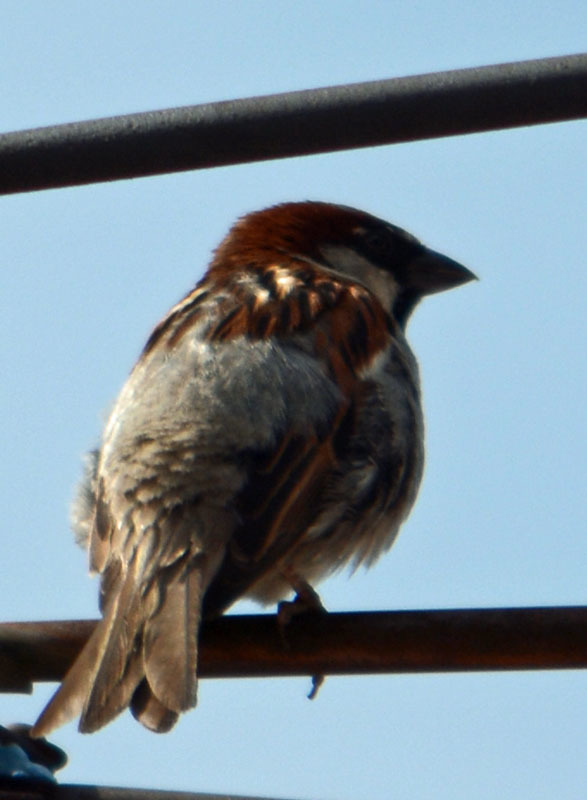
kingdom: Animalia
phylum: Chordata
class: Aves
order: Passeriformes
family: Passeridae
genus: Passer
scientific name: Passer domesticus
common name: House sparrow
